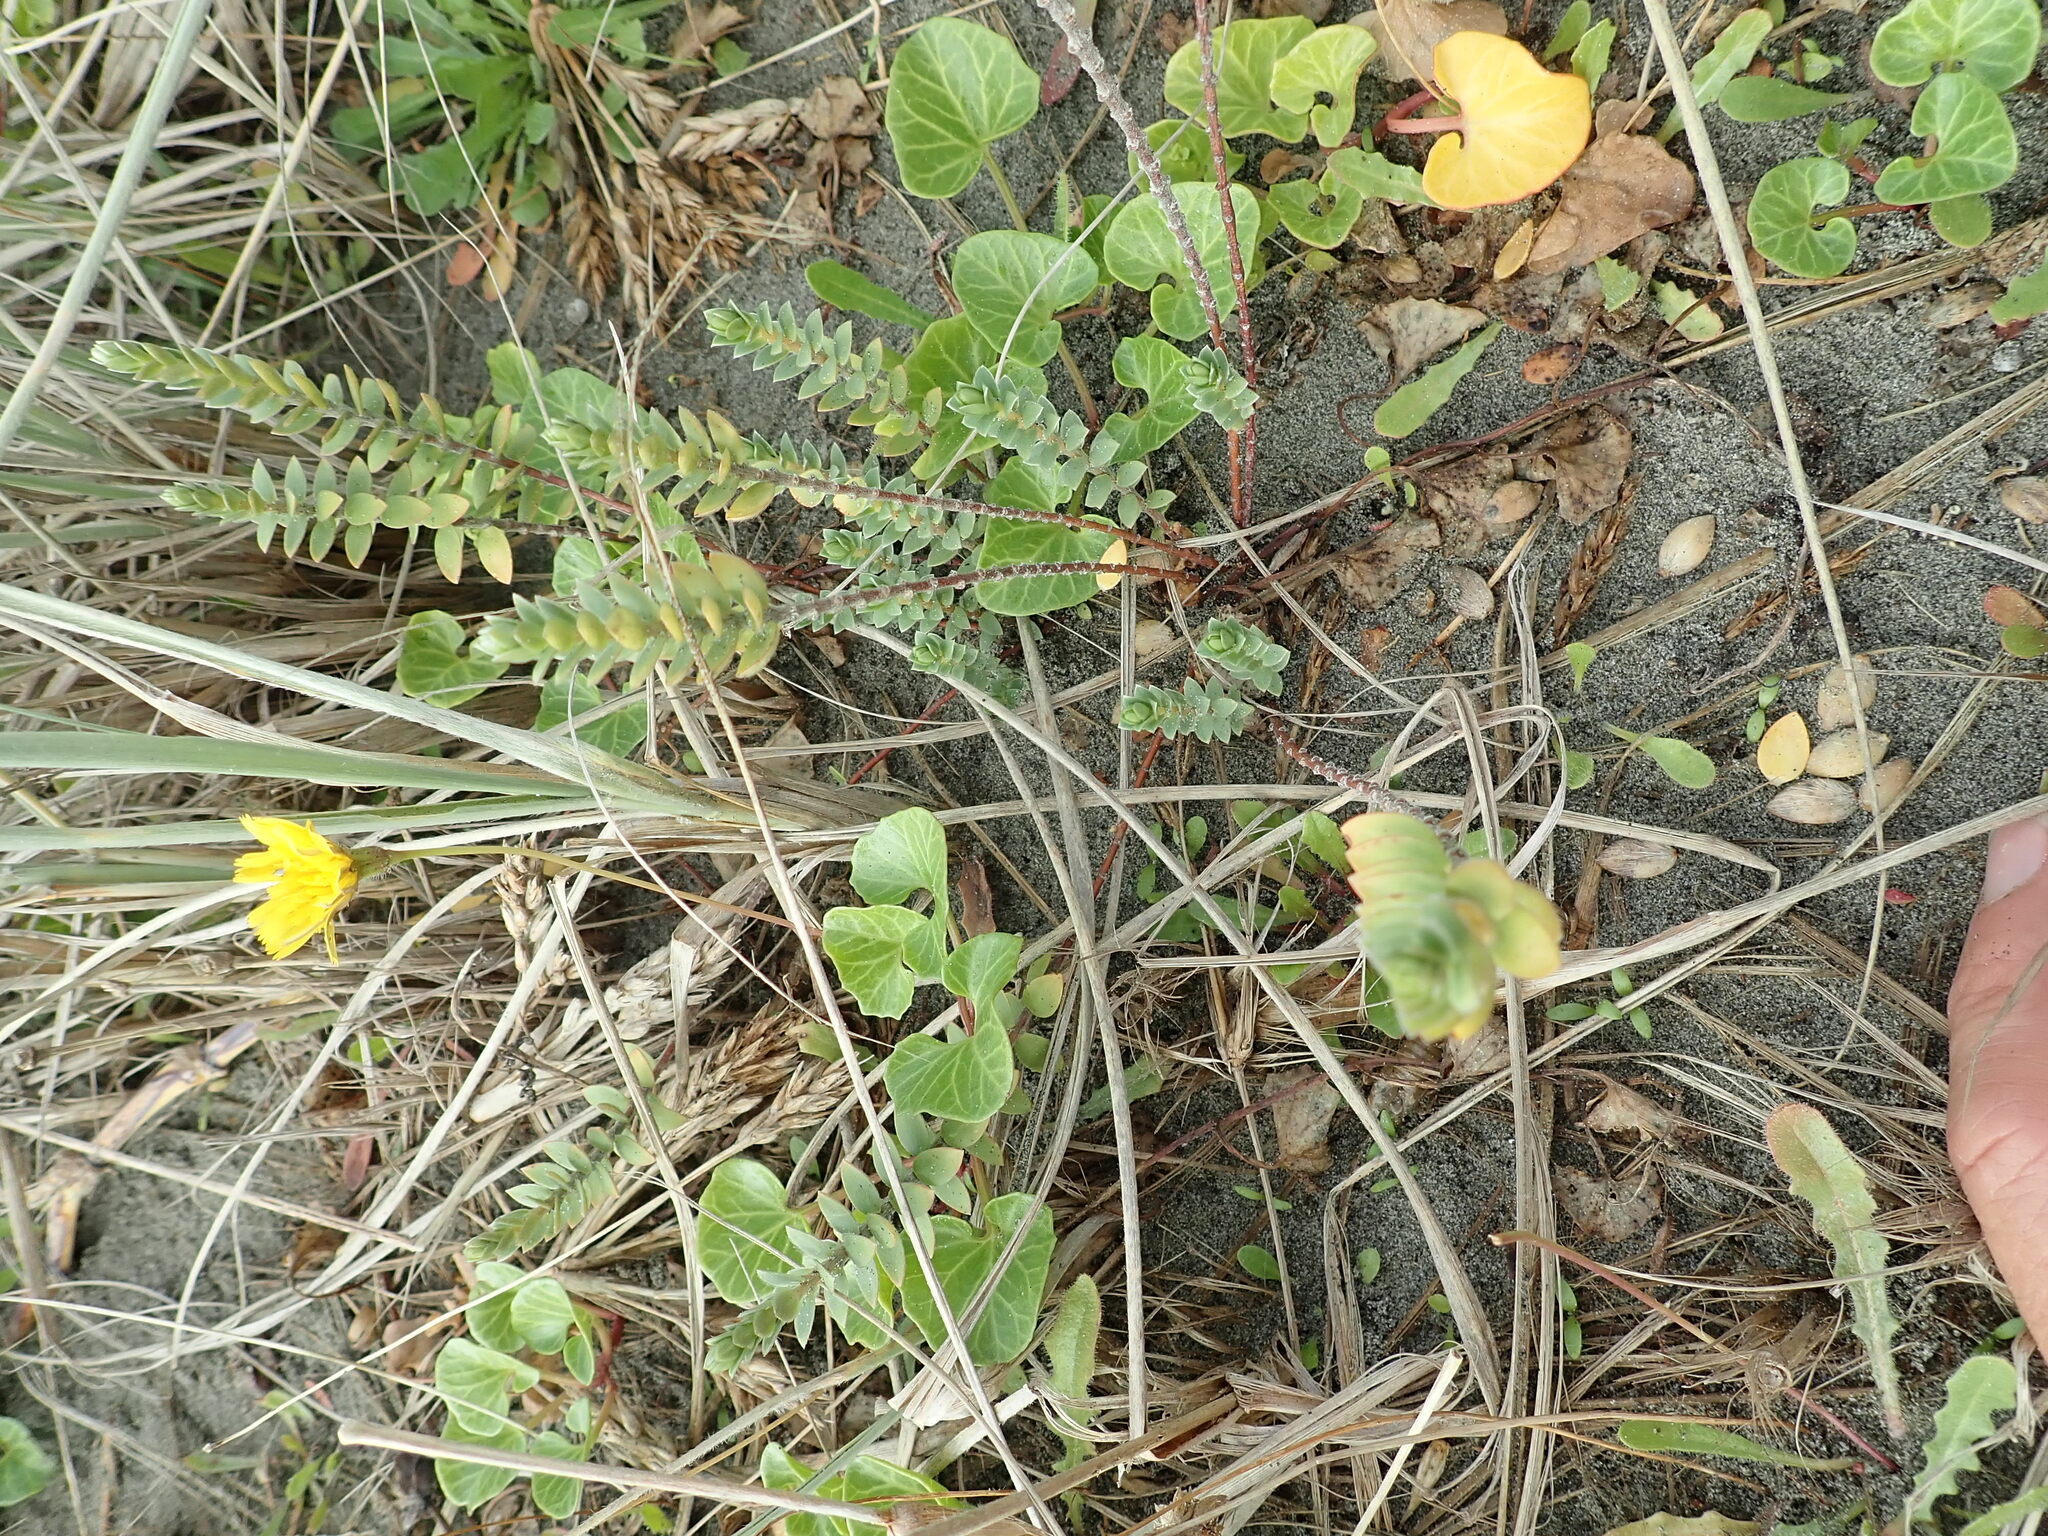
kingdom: Plantae
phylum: Tracheophyta
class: Magnoliopsida
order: Malvales
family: Thymelaeaceae
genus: Pimelea
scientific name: Pimelea villosa
